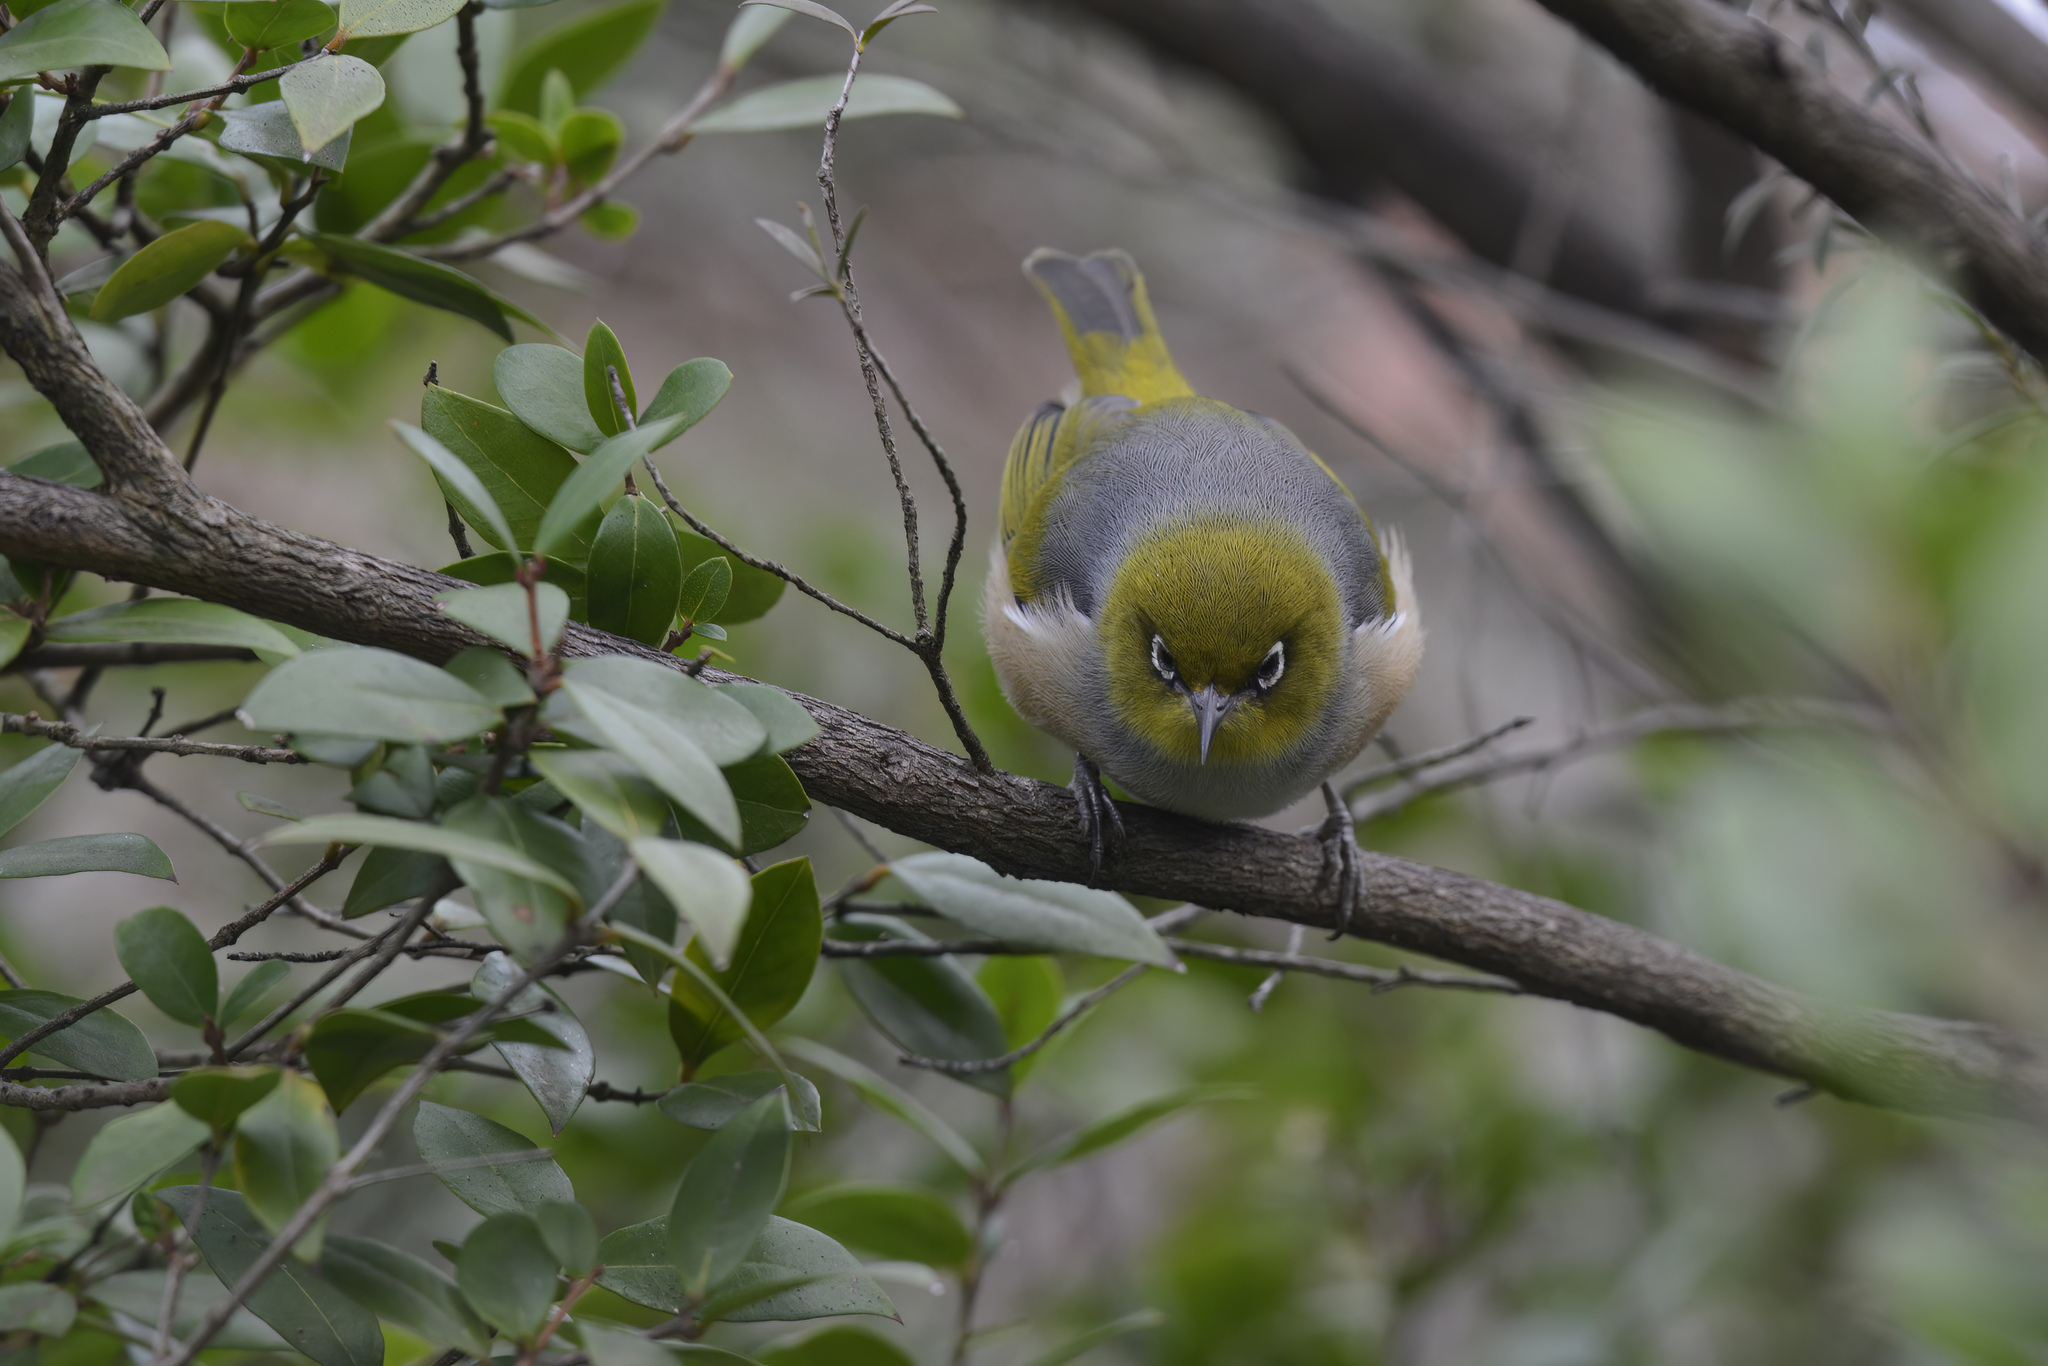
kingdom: Animalia
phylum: Chordata
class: Aves
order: Passeriformes
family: Zosteropidae
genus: Zosterops
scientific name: Zosterops lateralis
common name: Silvereye
